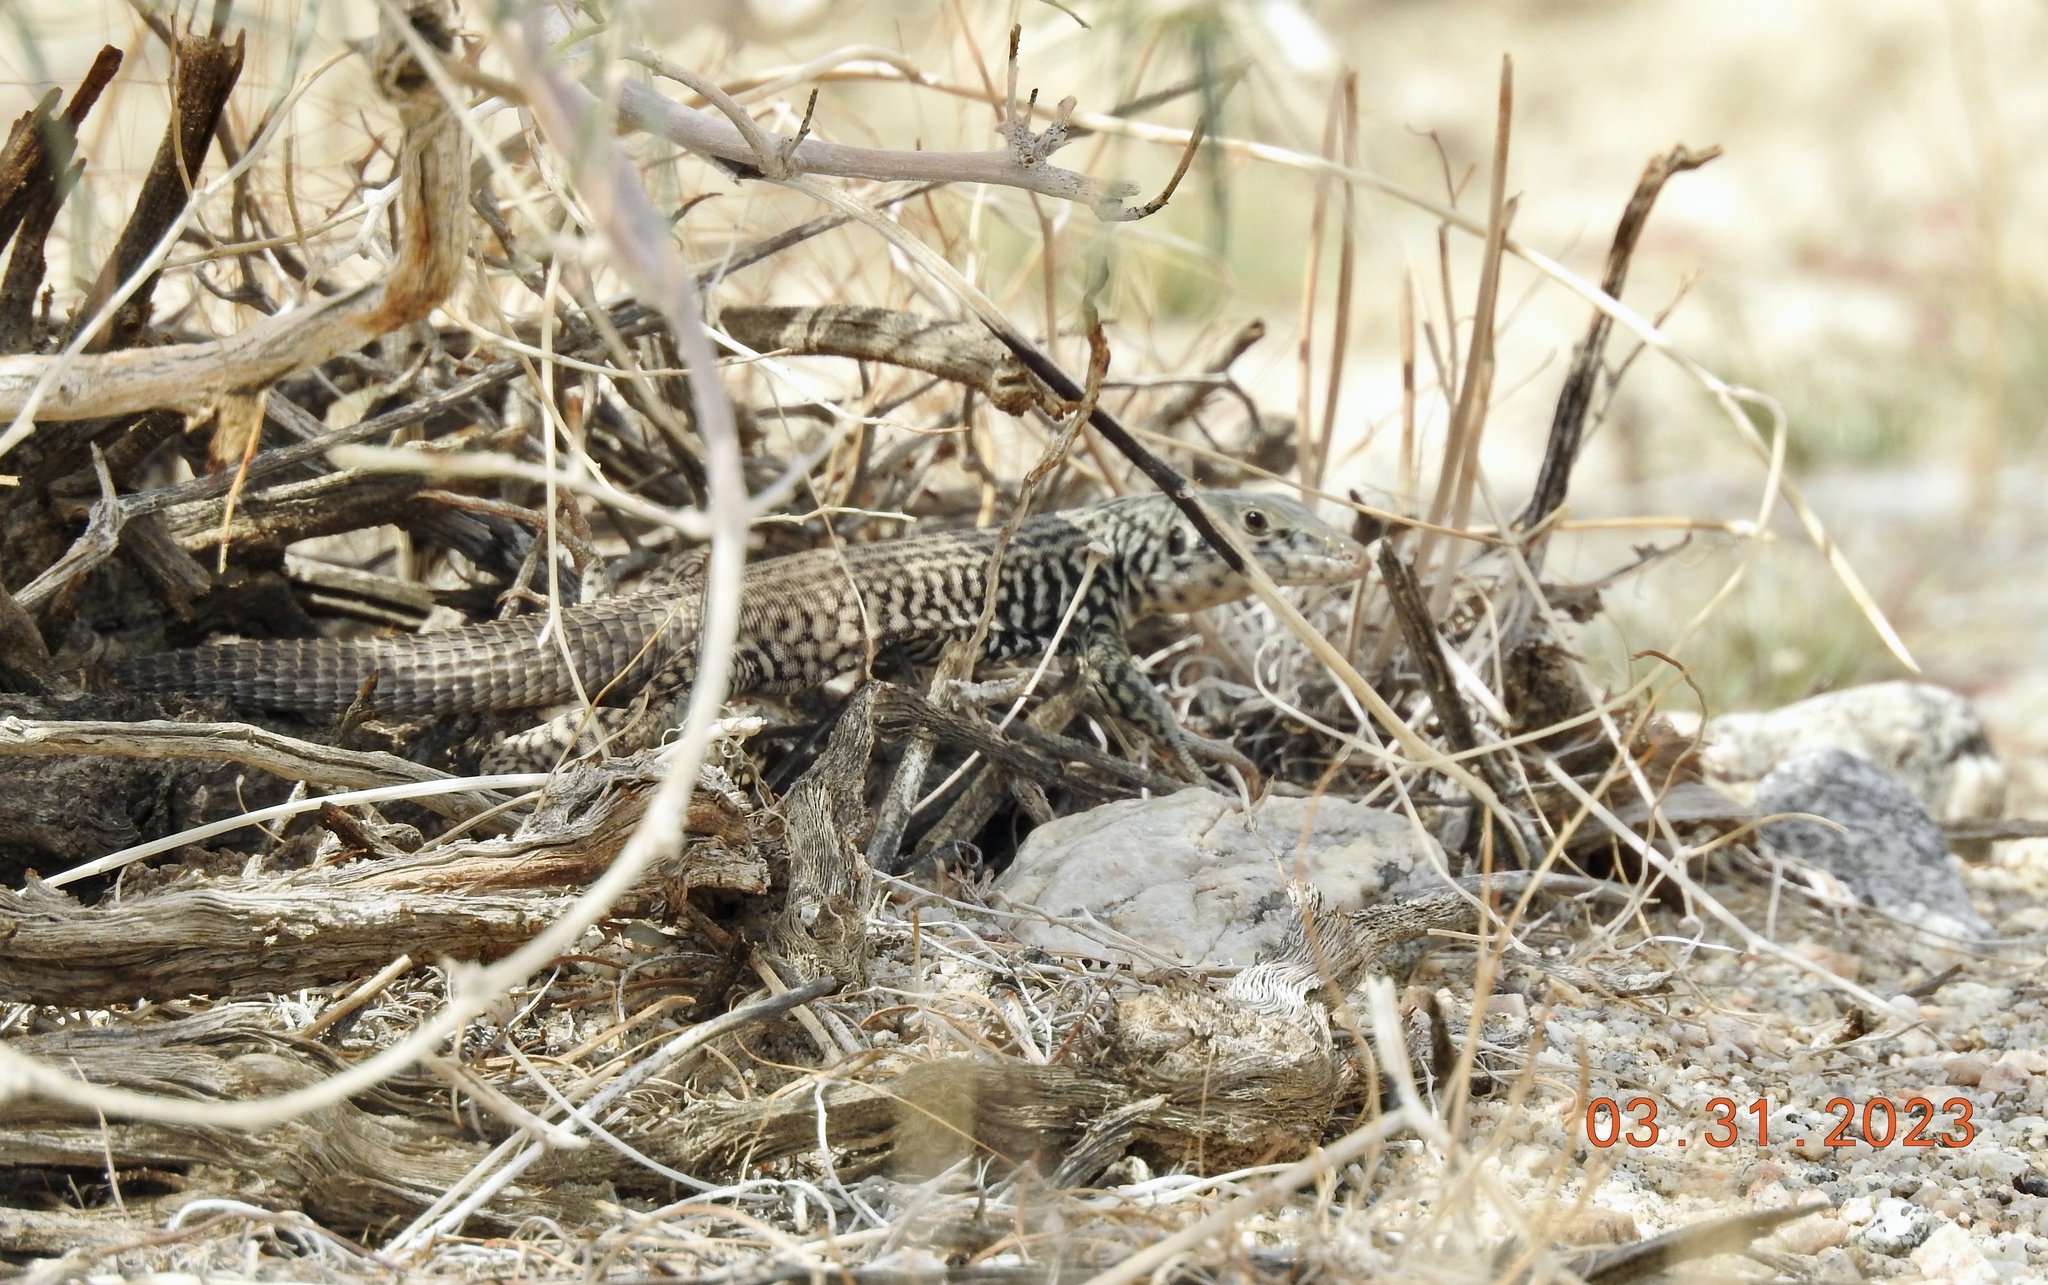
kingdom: Animalia
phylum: Chordata
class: Squamata
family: Teiidae
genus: Aspidoscelis
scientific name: Aspidoscelis tigris
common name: Tiger whiptail
